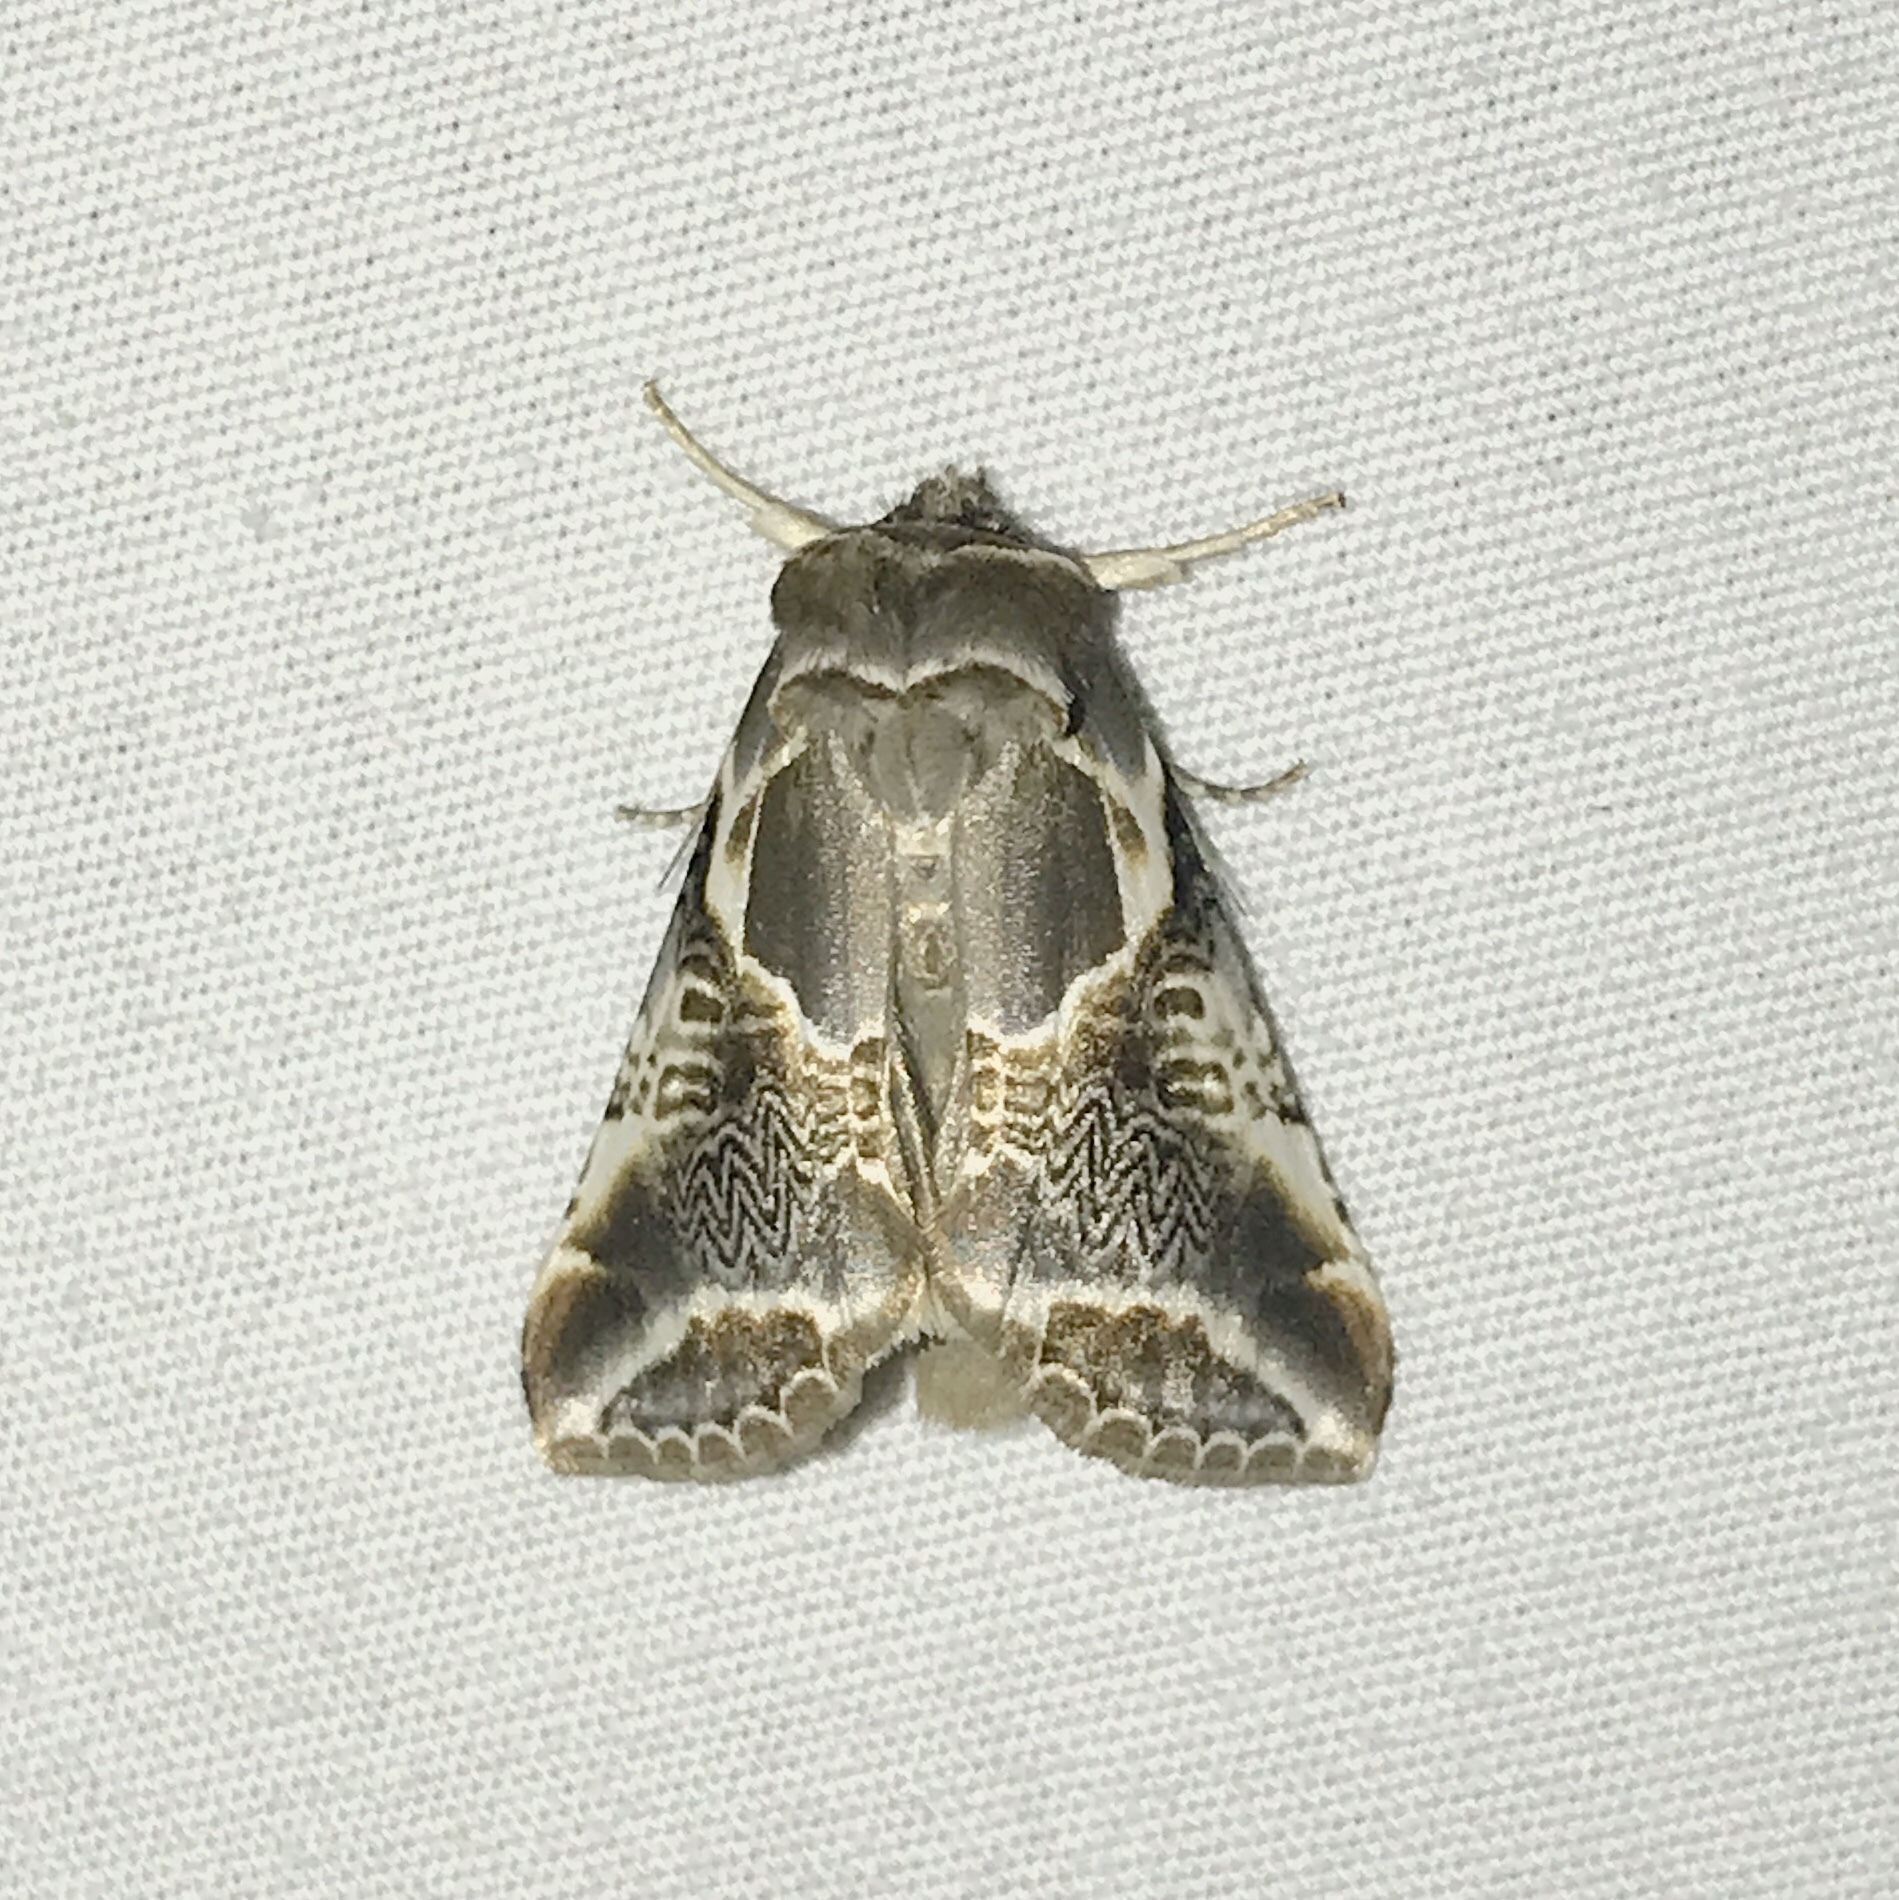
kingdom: Animalia
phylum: Arthropoda
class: Insecta
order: Lepidoptera
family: Drepanidae
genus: Habrosyne
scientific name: Habrosyne scripta
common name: Lettered habrosyne moth
